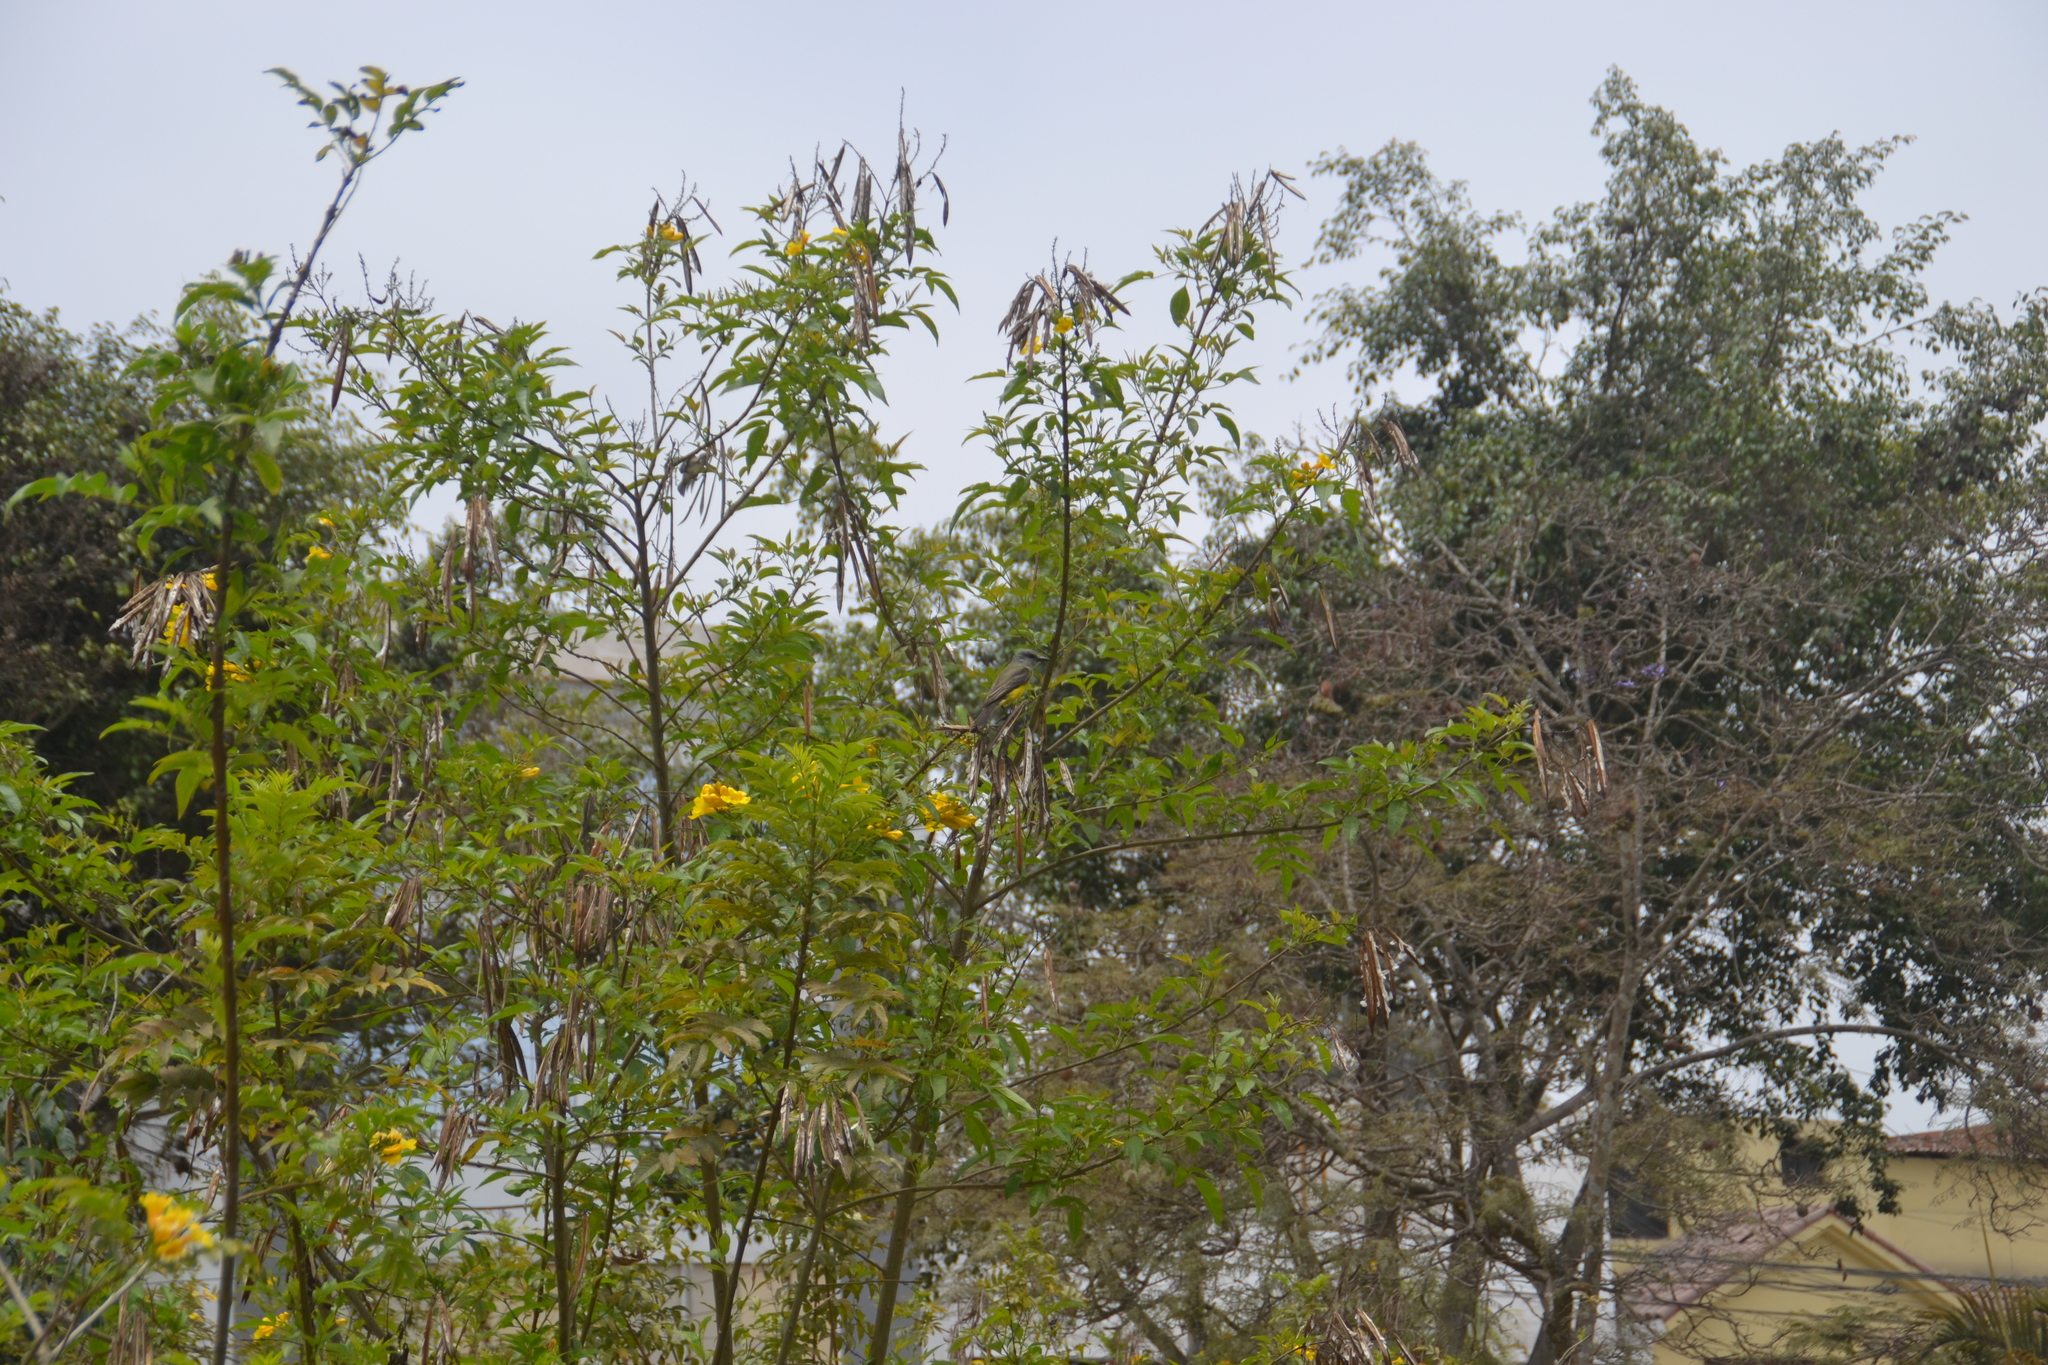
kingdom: Animalia
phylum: Chordata
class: Aves
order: Passeriformes
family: Tyrannidae
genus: Tyrannus
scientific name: Tyrannus melancholicus
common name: Tropical kingbird
